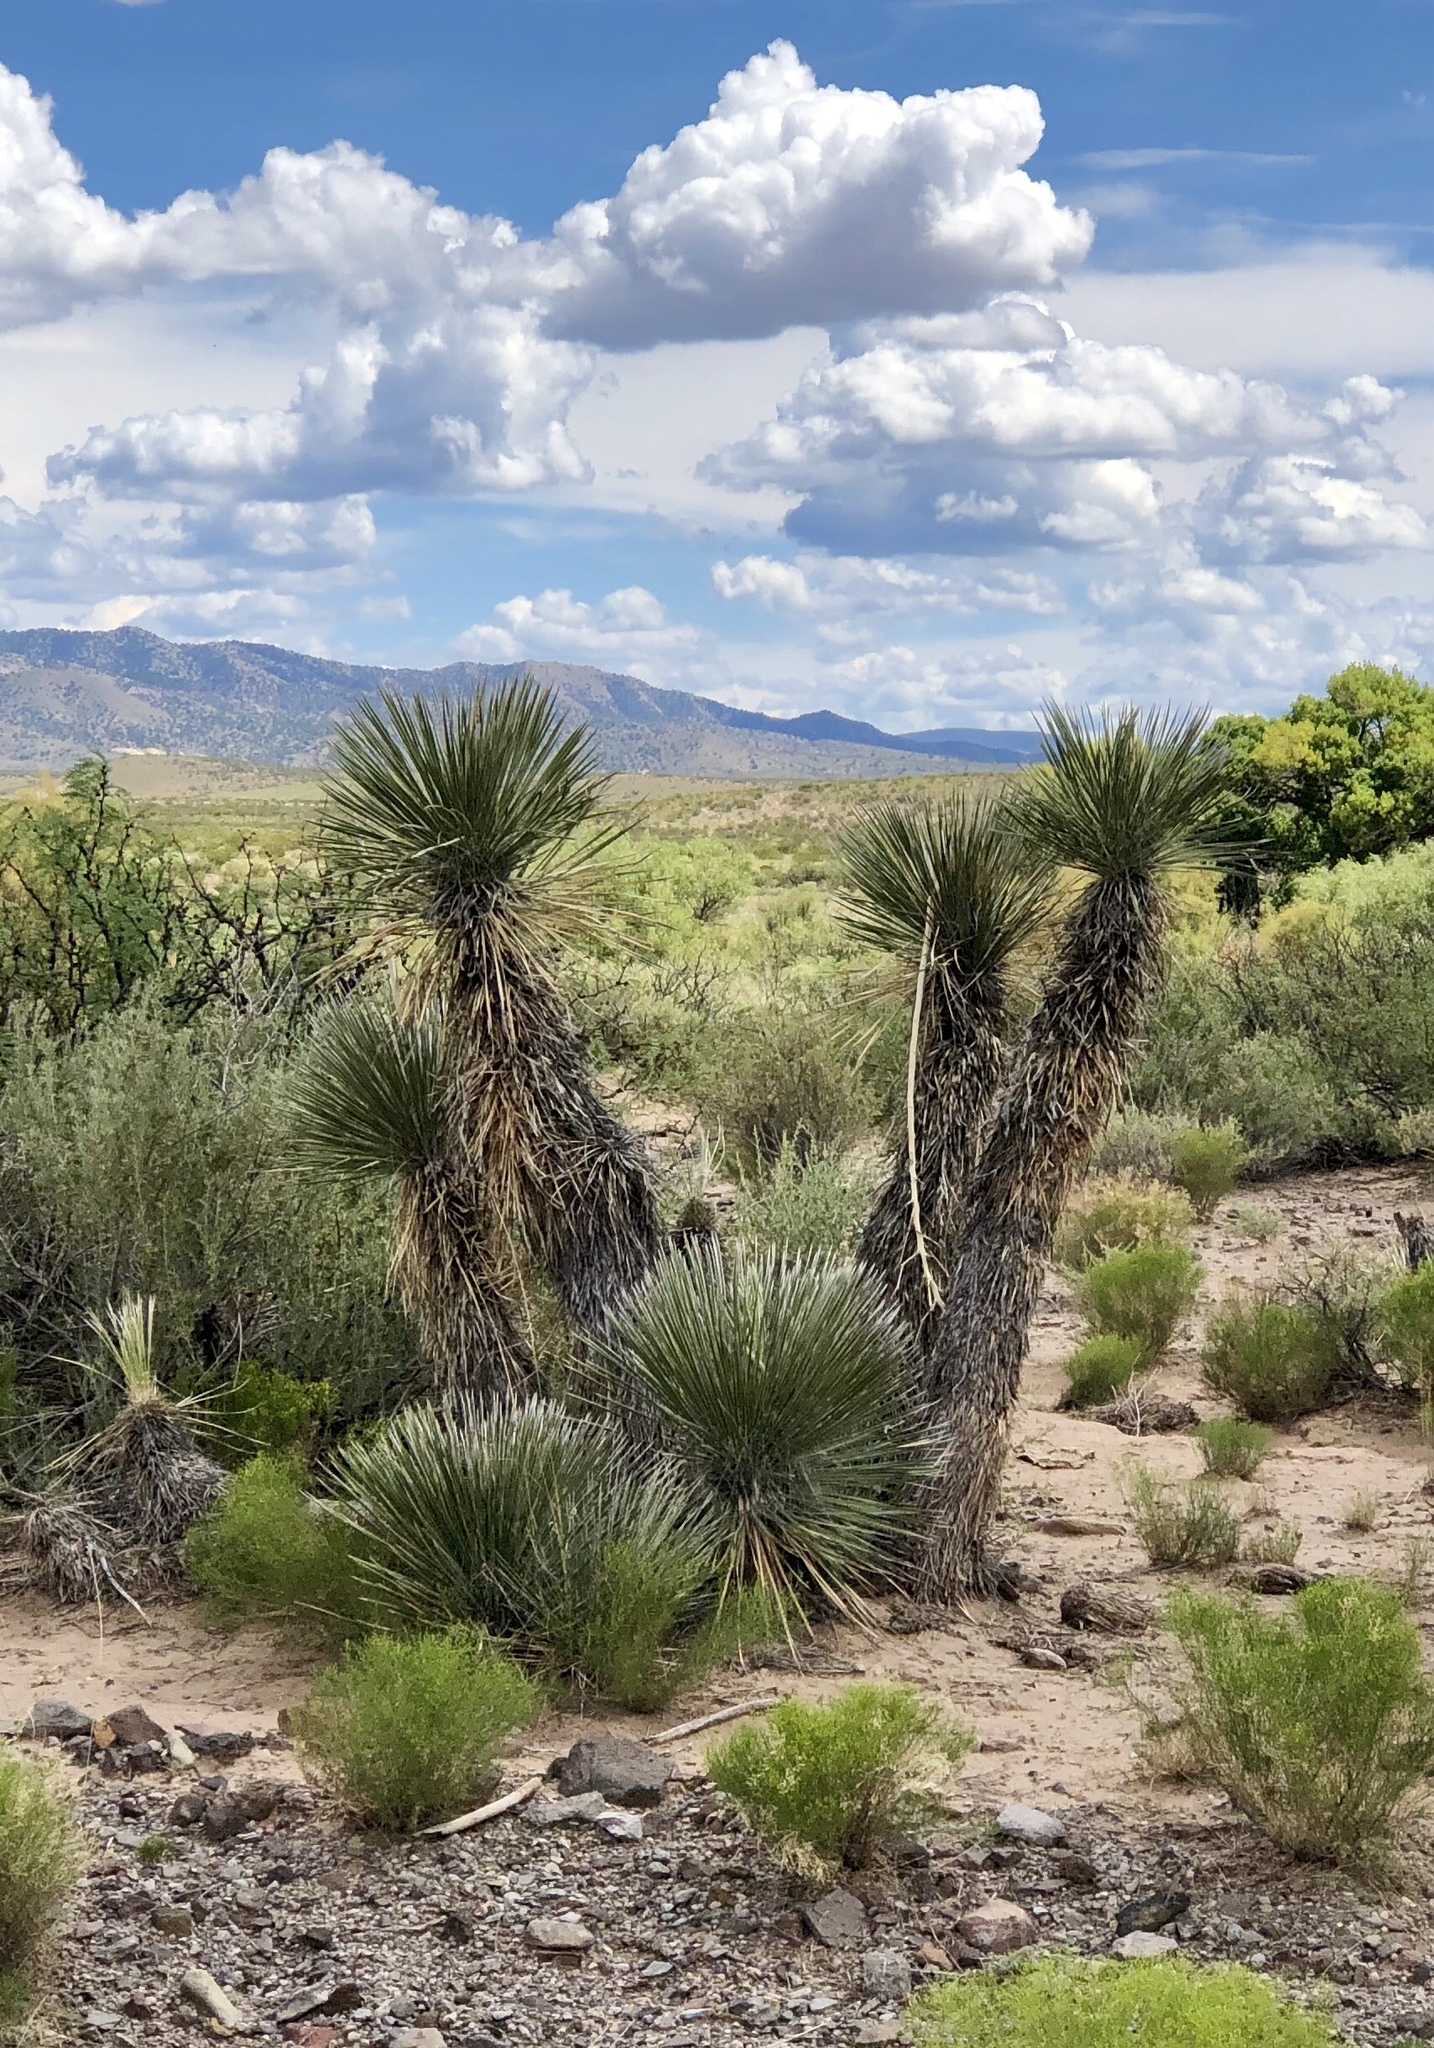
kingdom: Plantae
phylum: Tracheophyta
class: Liliopsida
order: Asparagales
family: Asparagaceae
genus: Yucca
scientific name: Yucca elata
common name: Palmella
